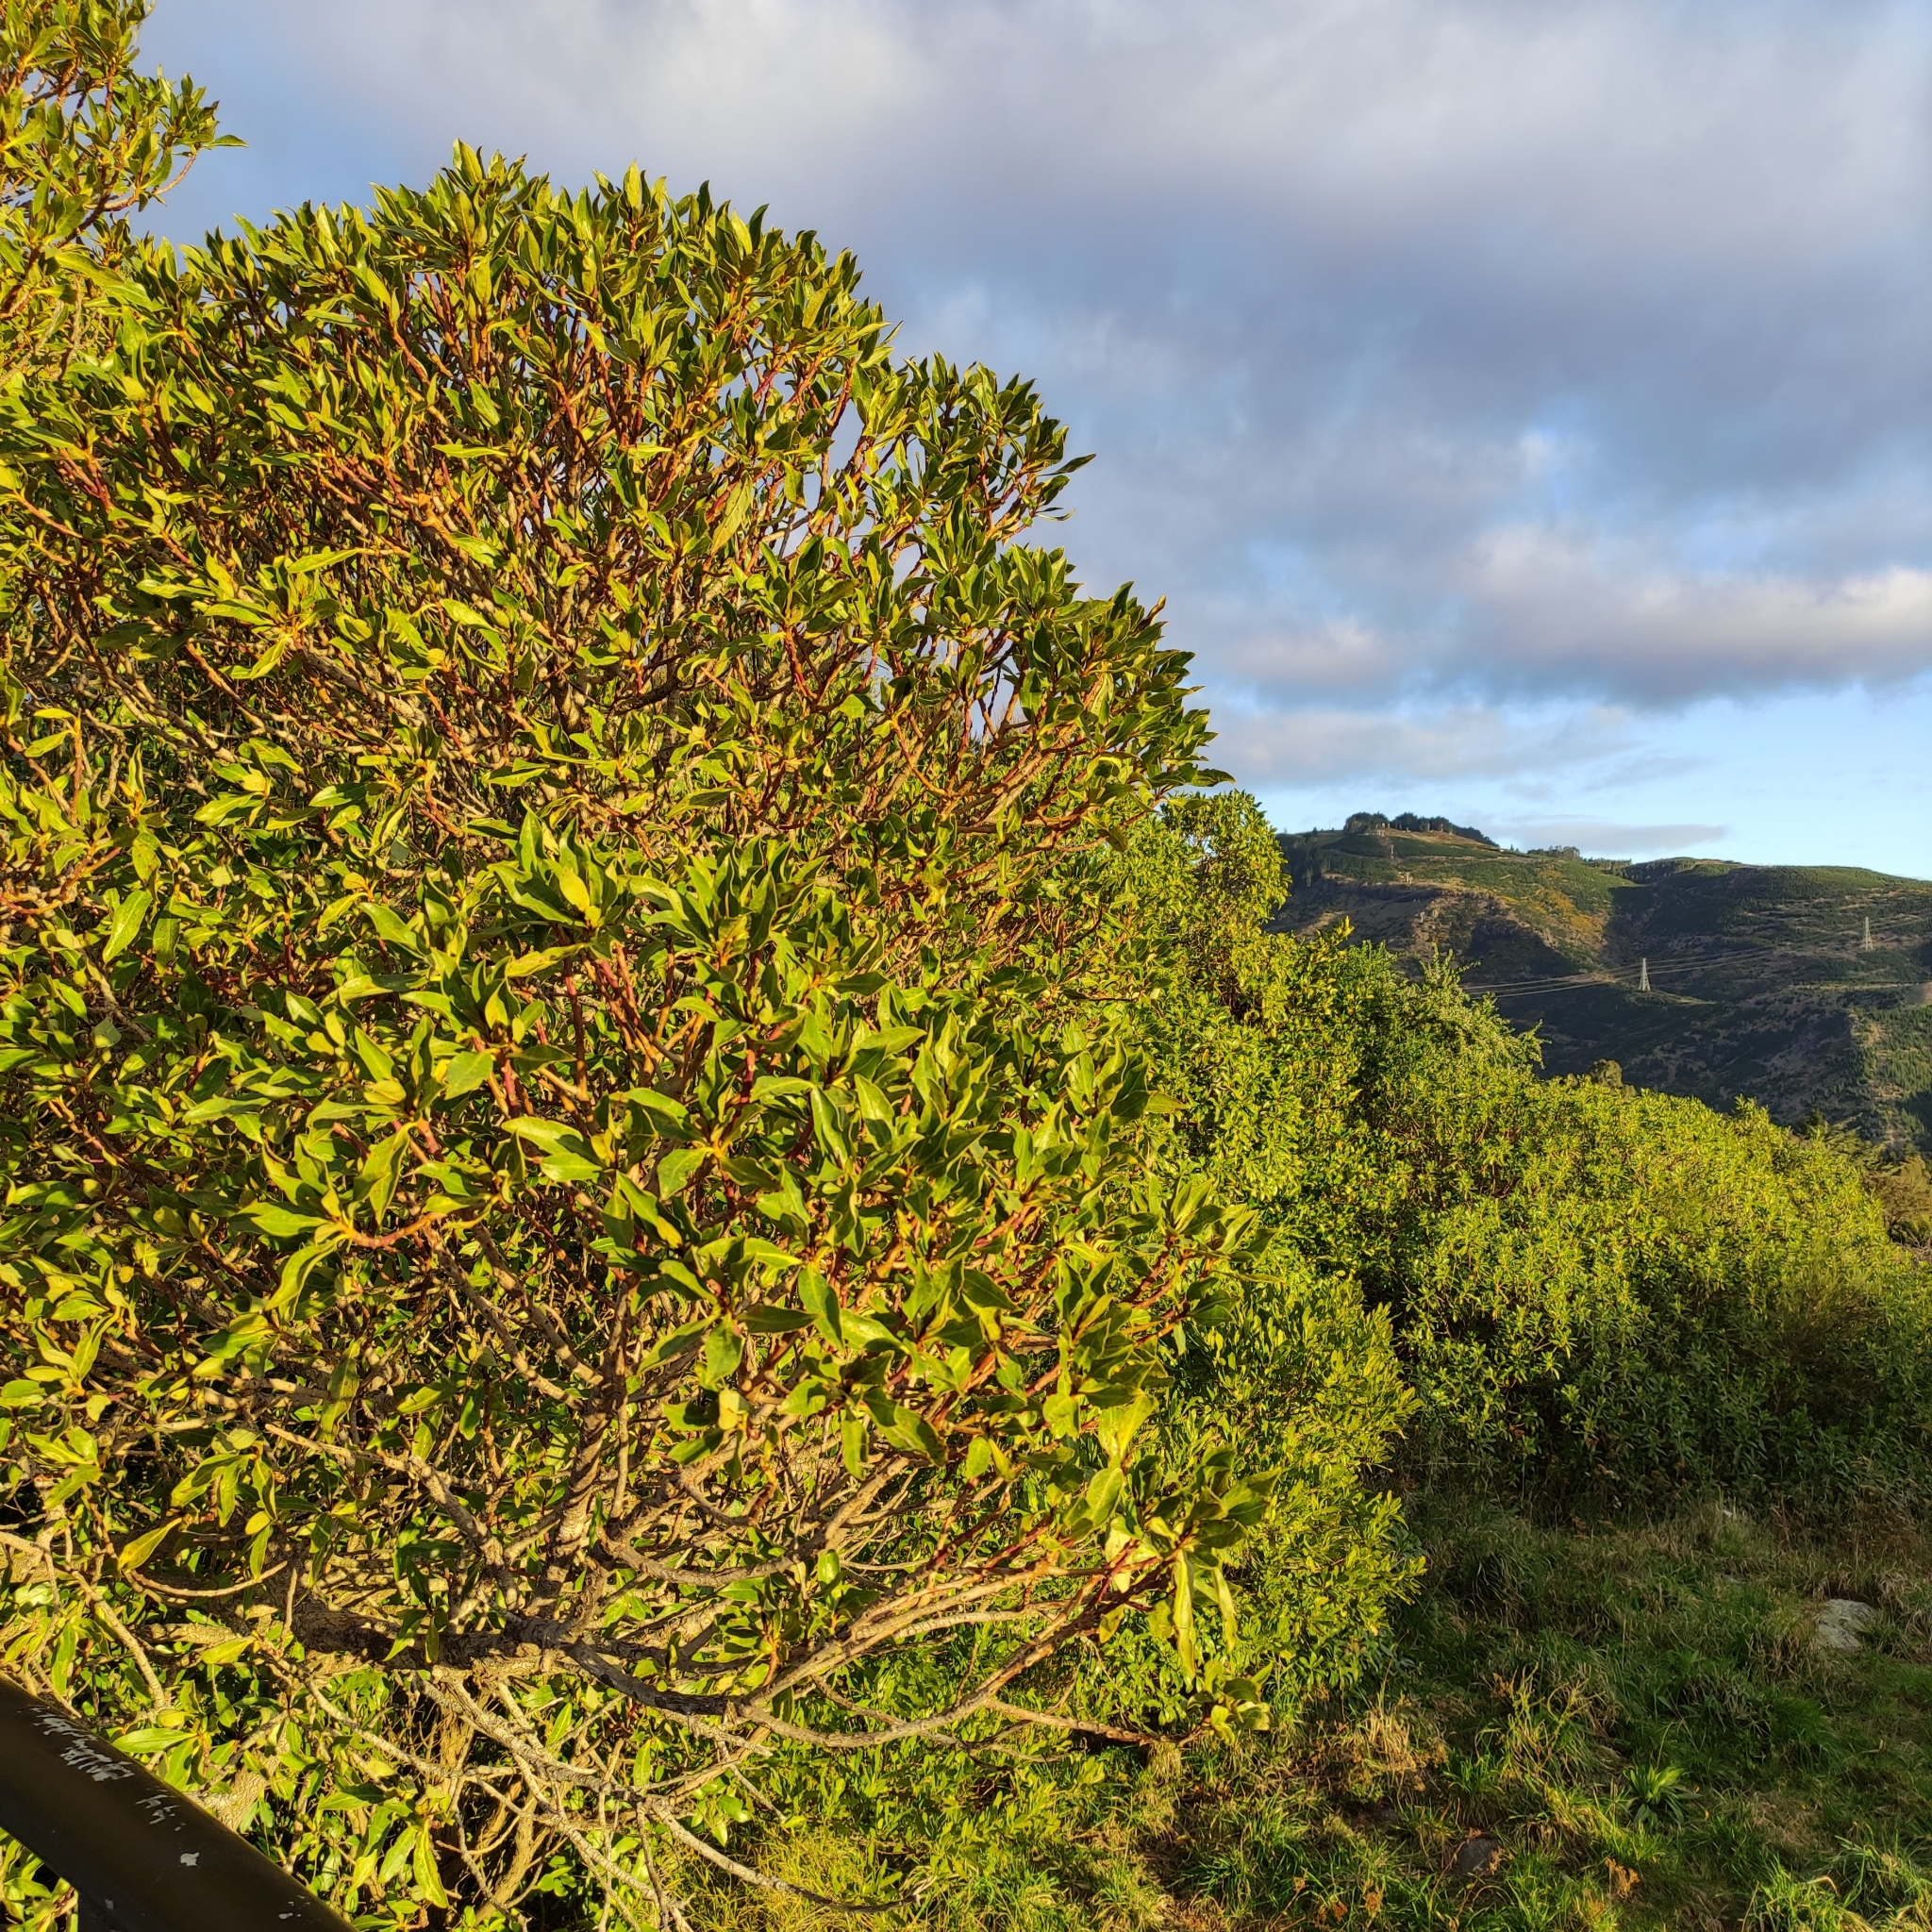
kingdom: Plantae
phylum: Tracheophyta
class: Magnoliopsida
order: Lamiales
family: Scrophulariaceae
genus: Myoporum
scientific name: Myoporum laetum
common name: Ngaio tree
